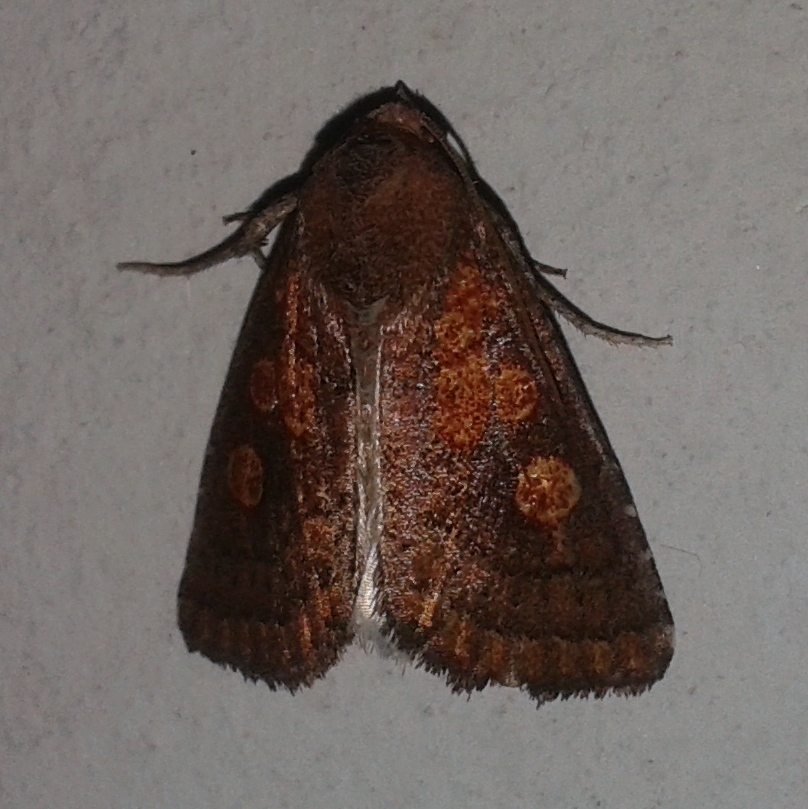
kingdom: Animalia
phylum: Arthropoda
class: Insecta
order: Lepidoptera
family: Noctuidae
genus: Macapta
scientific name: Macapta lurida
